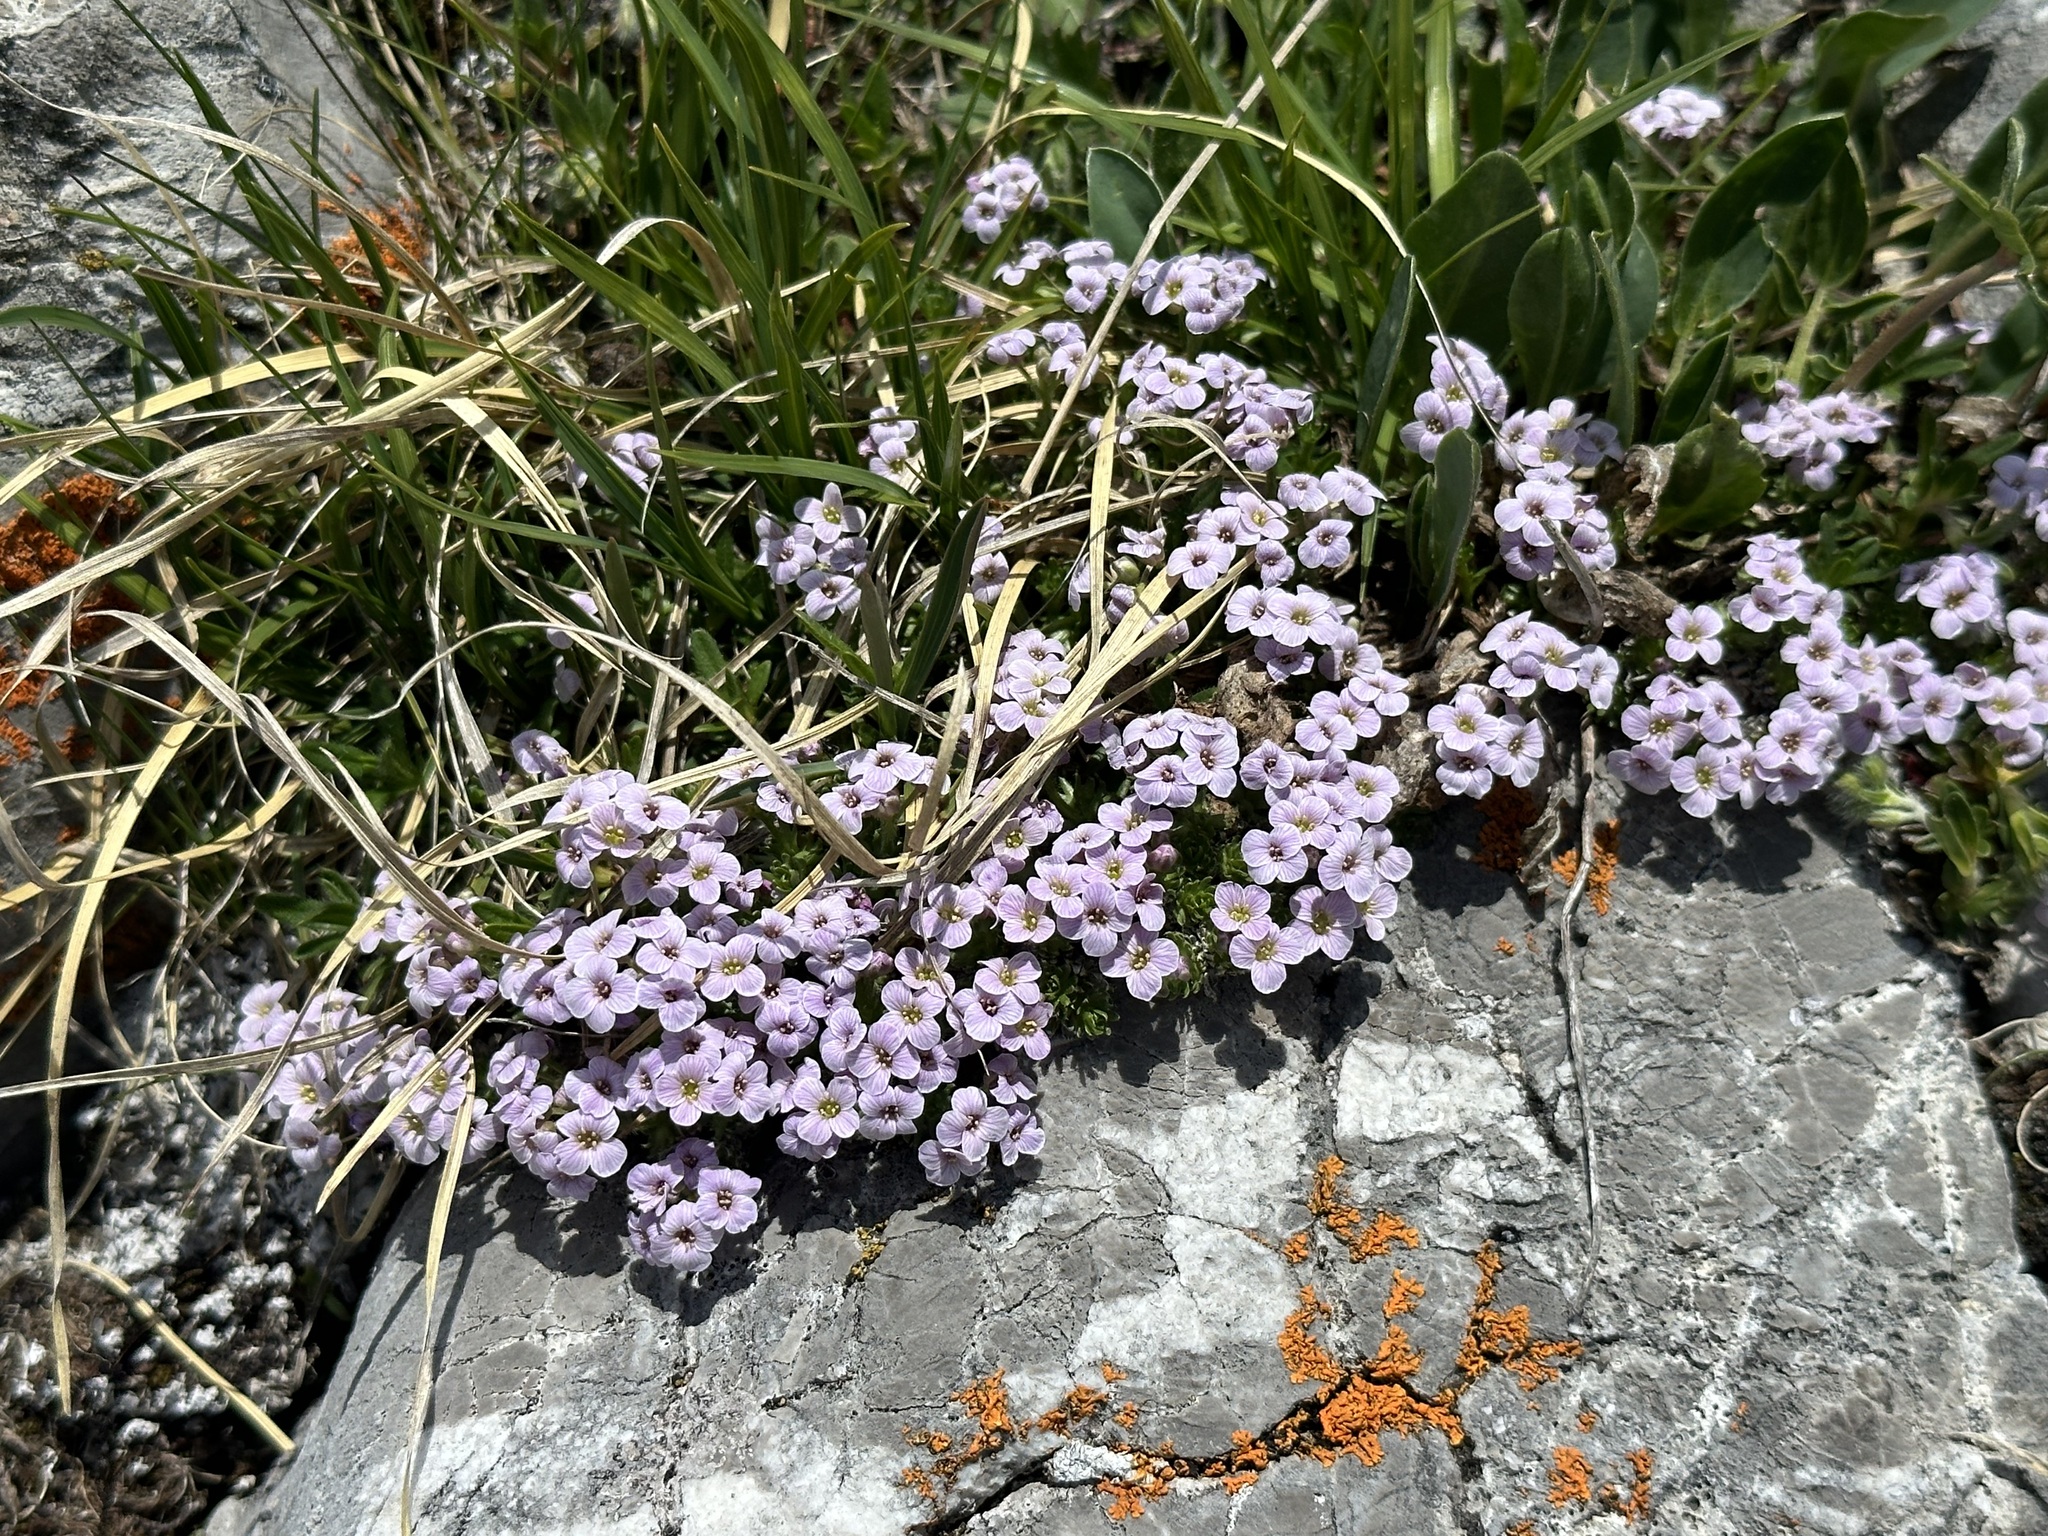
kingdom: Plantae
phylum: Tracheophyta
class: Magnoliopsida
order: Brassicales
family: Brassicaceae
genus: Petrocallis
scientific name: Petrocallis pyrenaica
